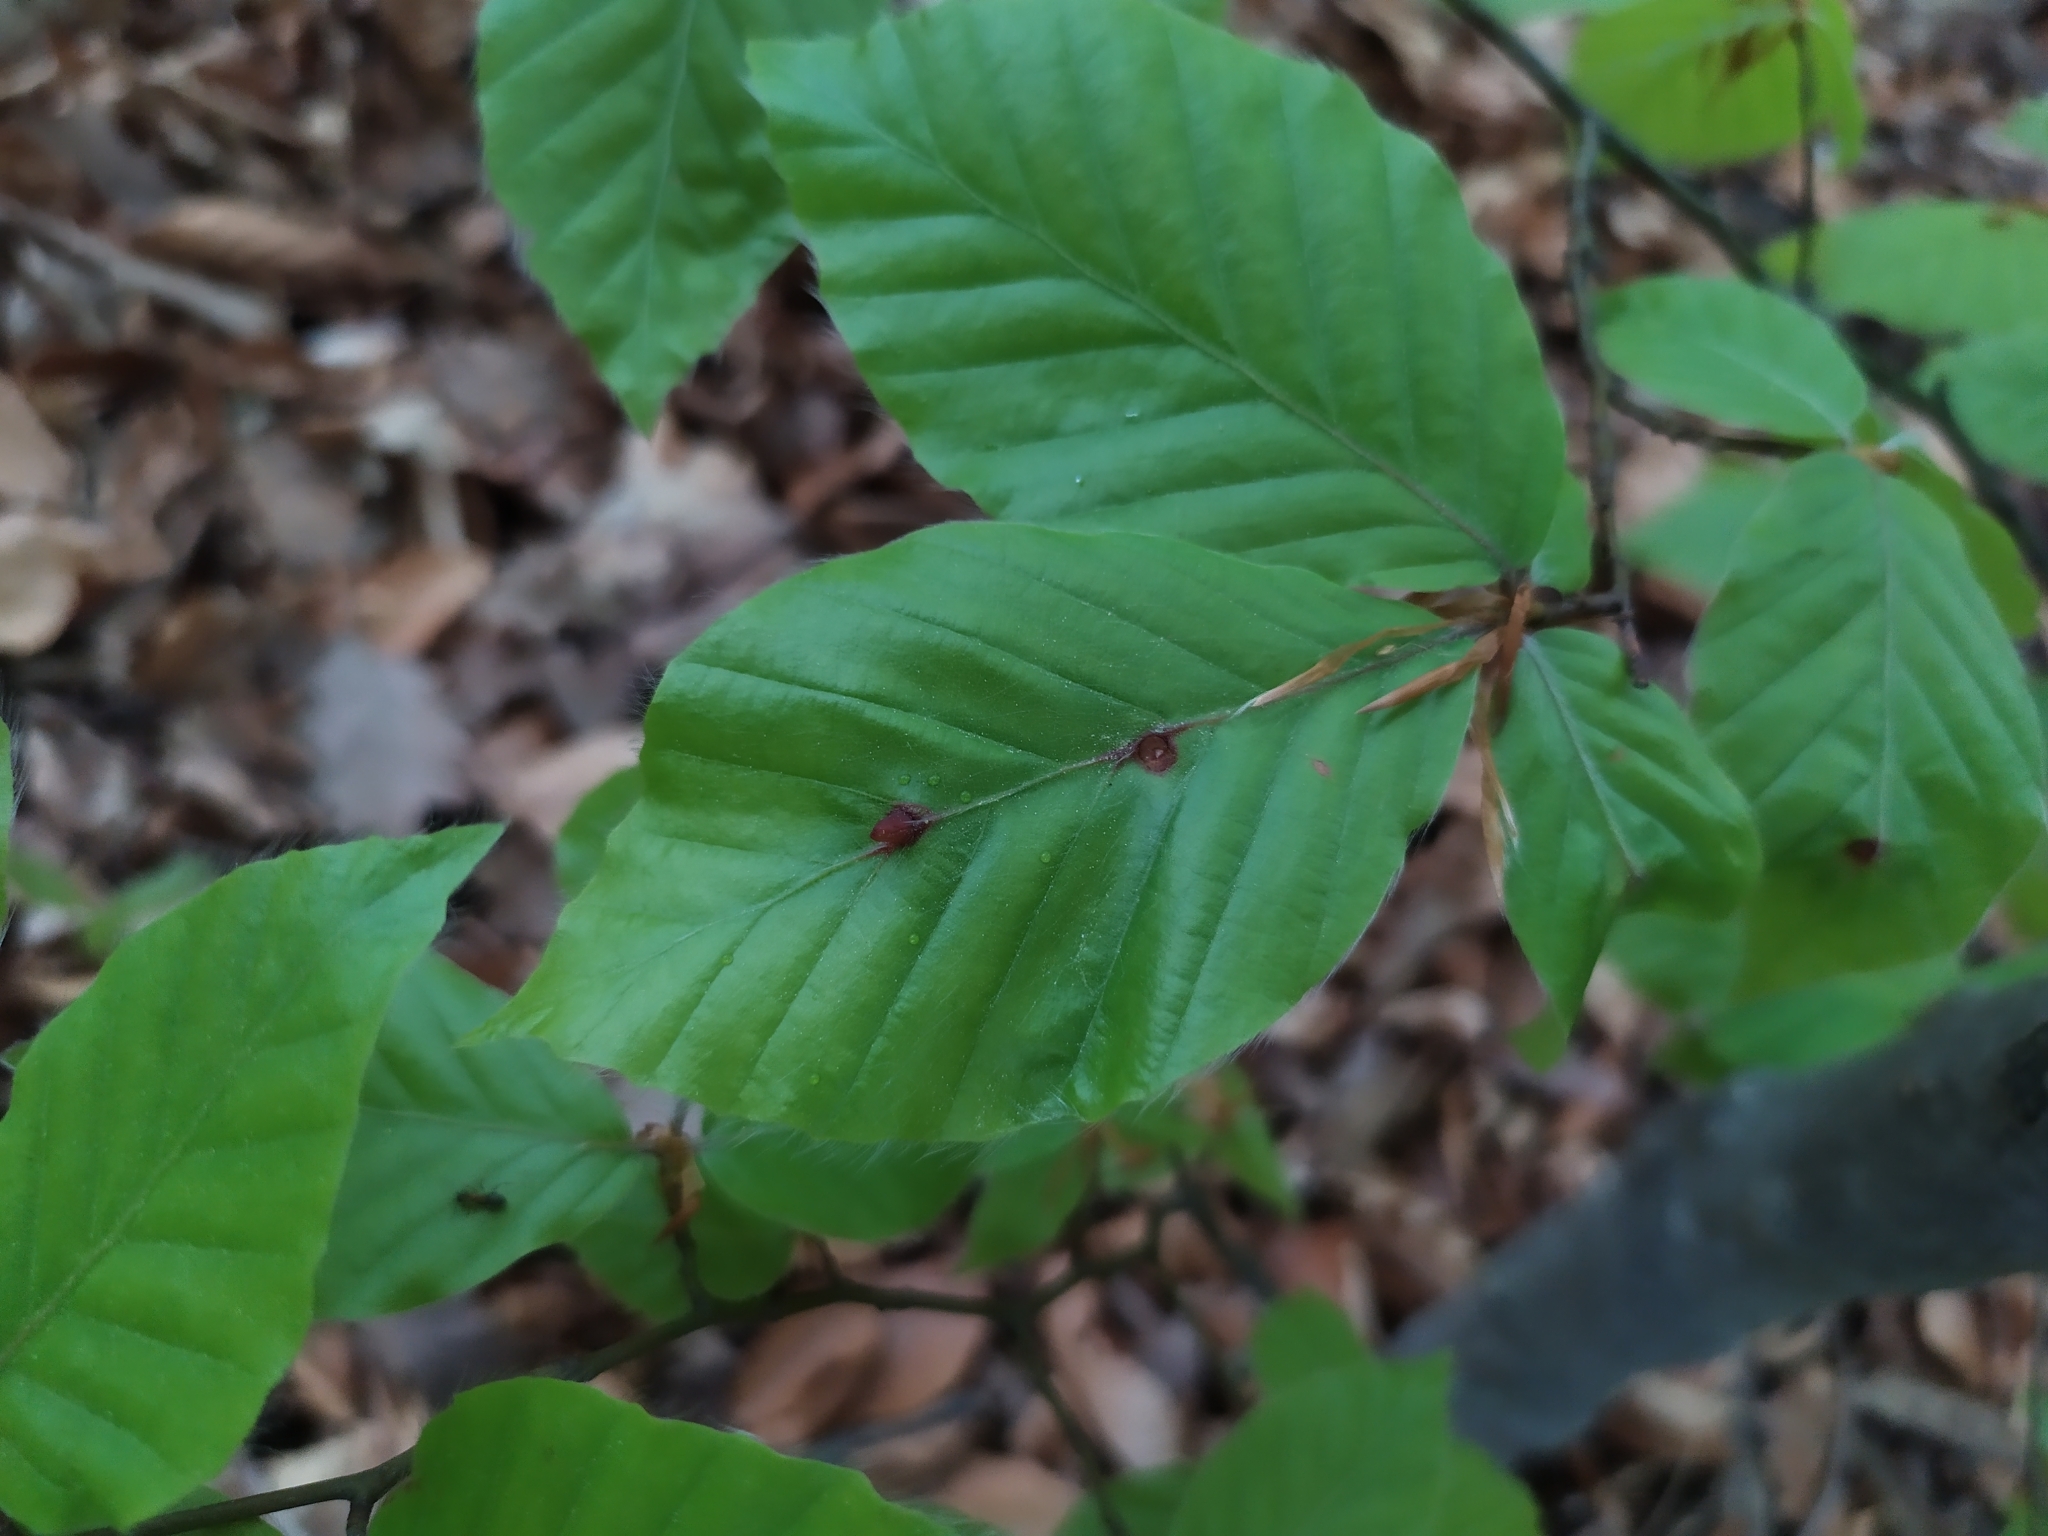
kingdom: Animalia
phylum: Arthropoda
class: Insecta
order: Diptera
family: Cecidomyiidae
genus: Mikiola
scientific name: Mikiola fagi
